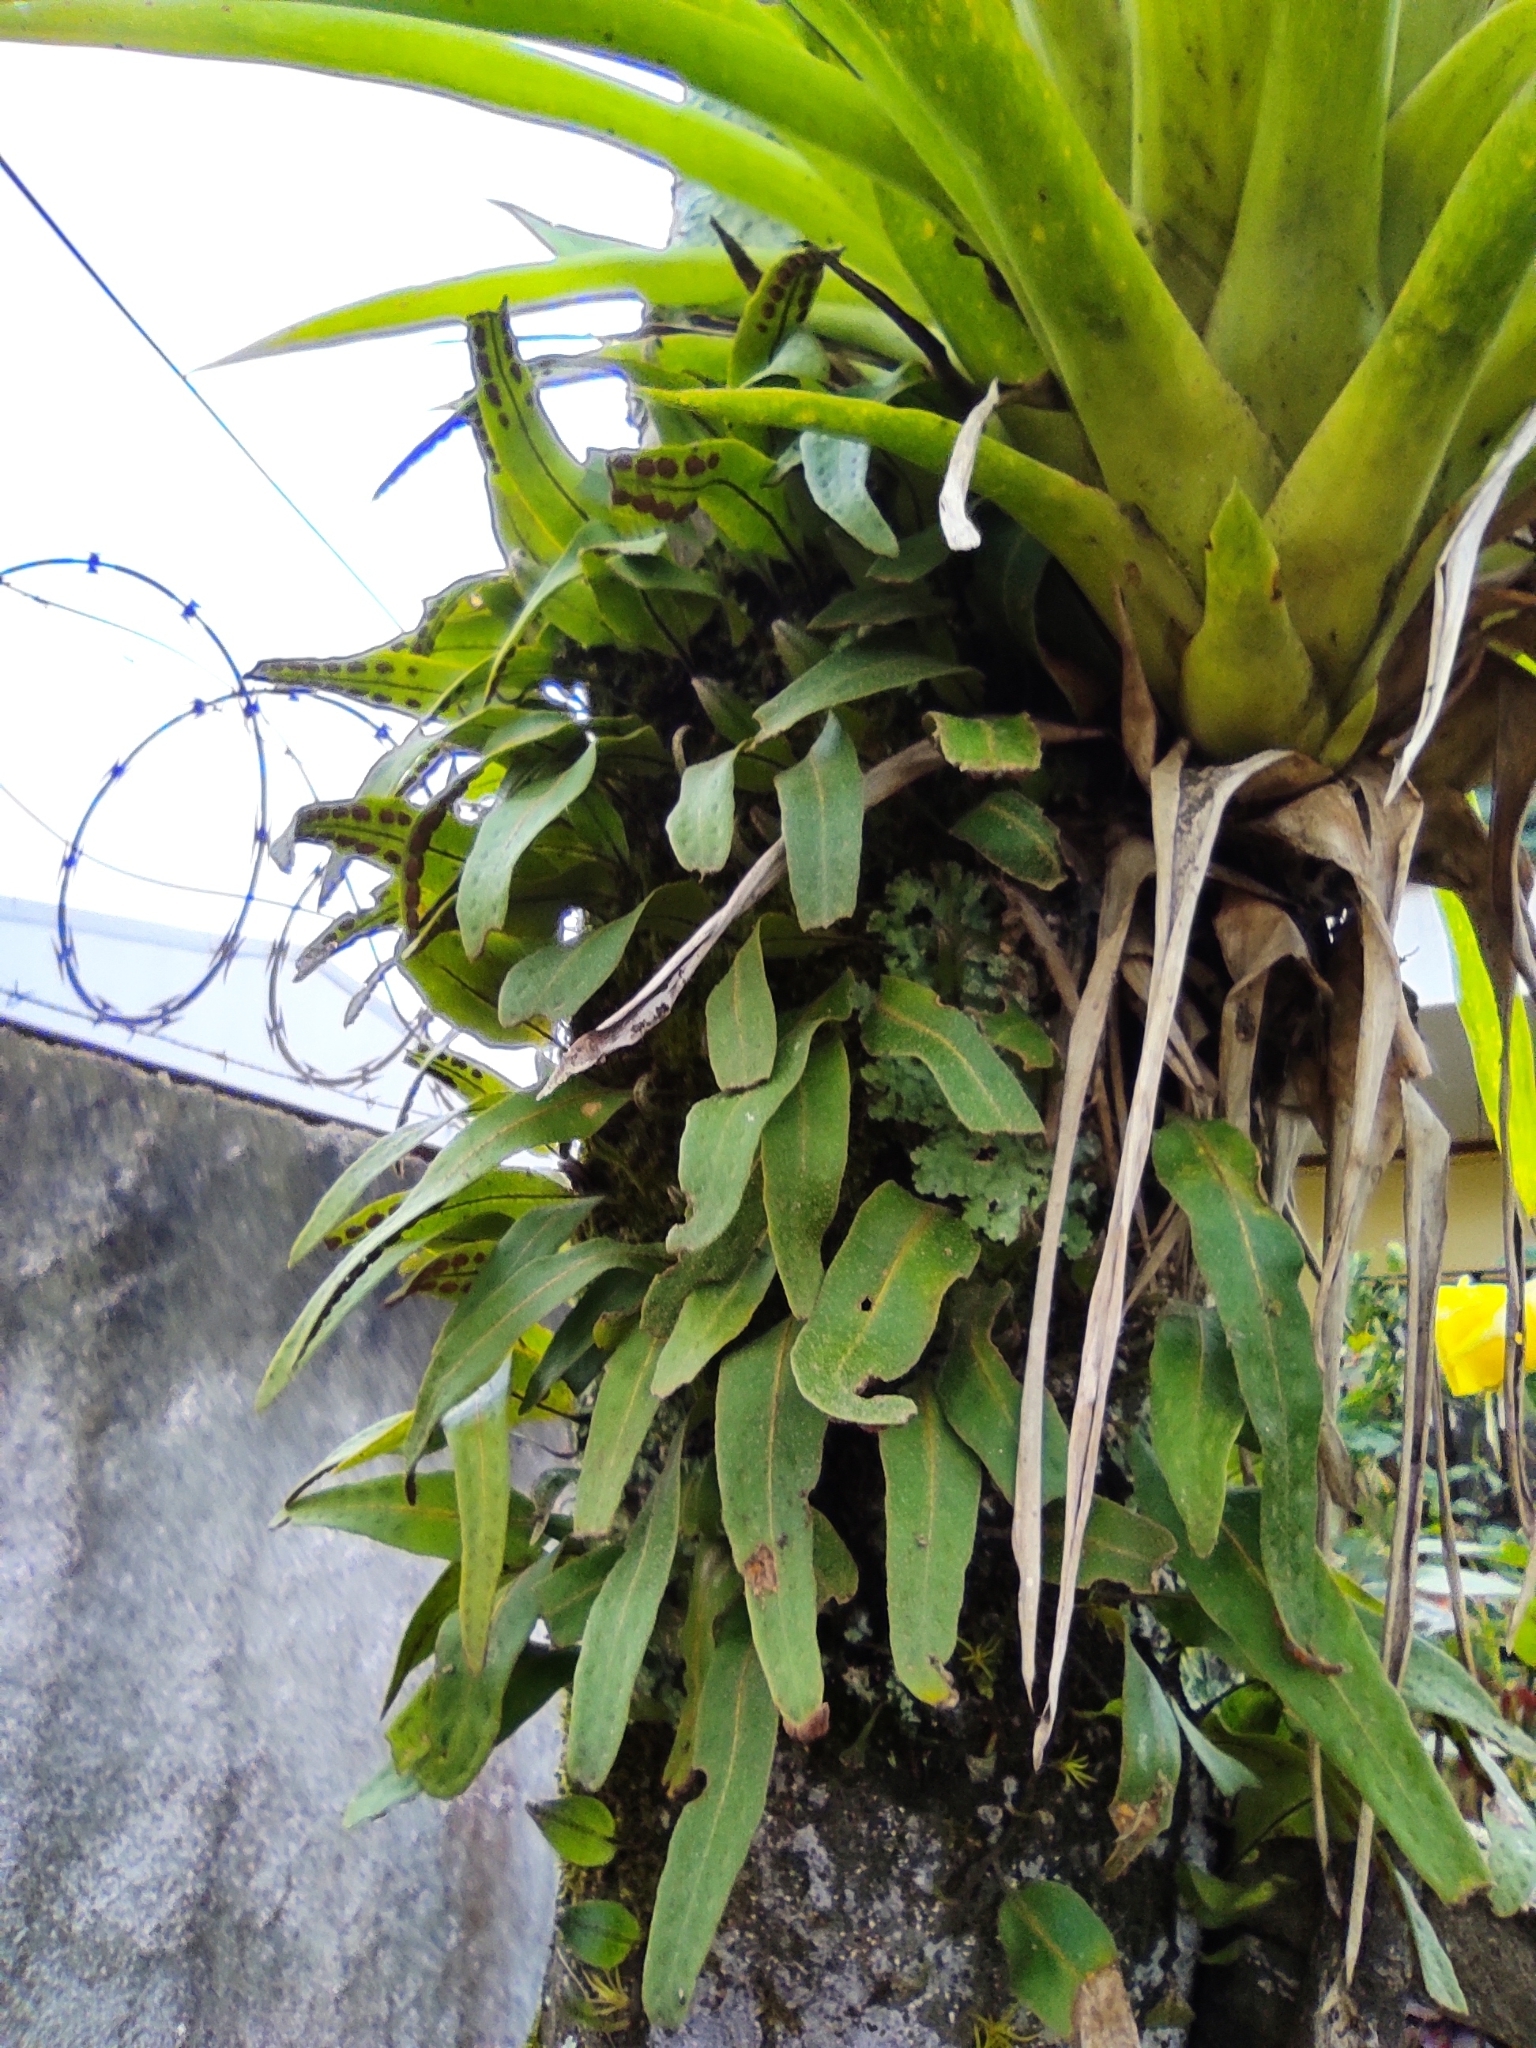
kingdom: Plantae
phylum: Tracheophyta
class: Polypodiopsida
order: Polypodiales
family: Polypodiaceae
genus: Pleopeltis
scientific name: Pleopeltis macrocarpa
